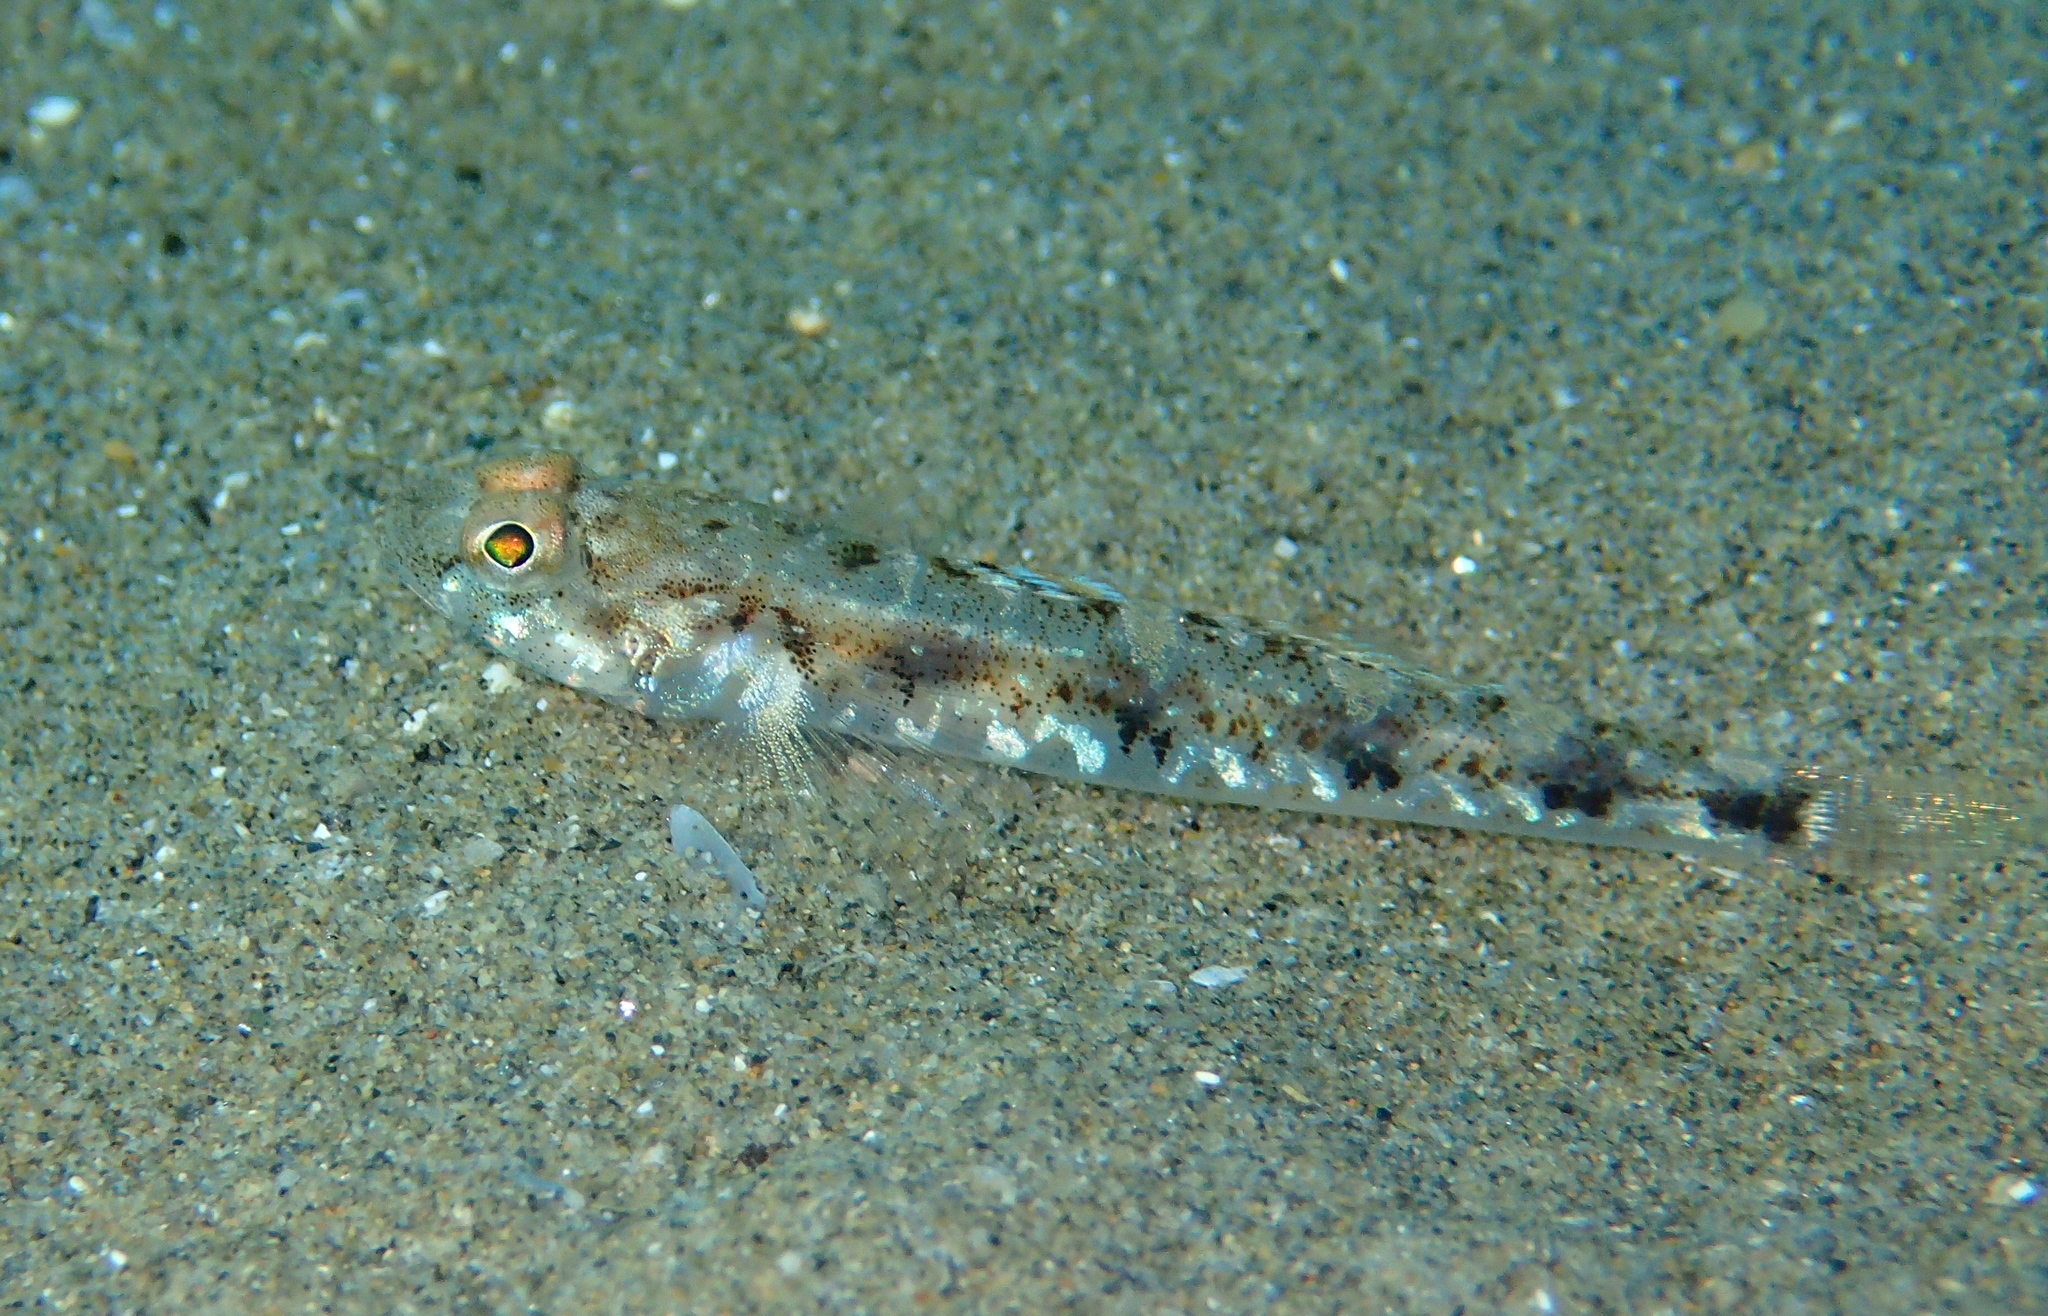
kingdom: Animalia
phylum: Chordata
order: Perciformes
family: Gobiidae
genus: Pomatoschistus
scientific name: Pomatoschistus pictus
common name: Painted goby
